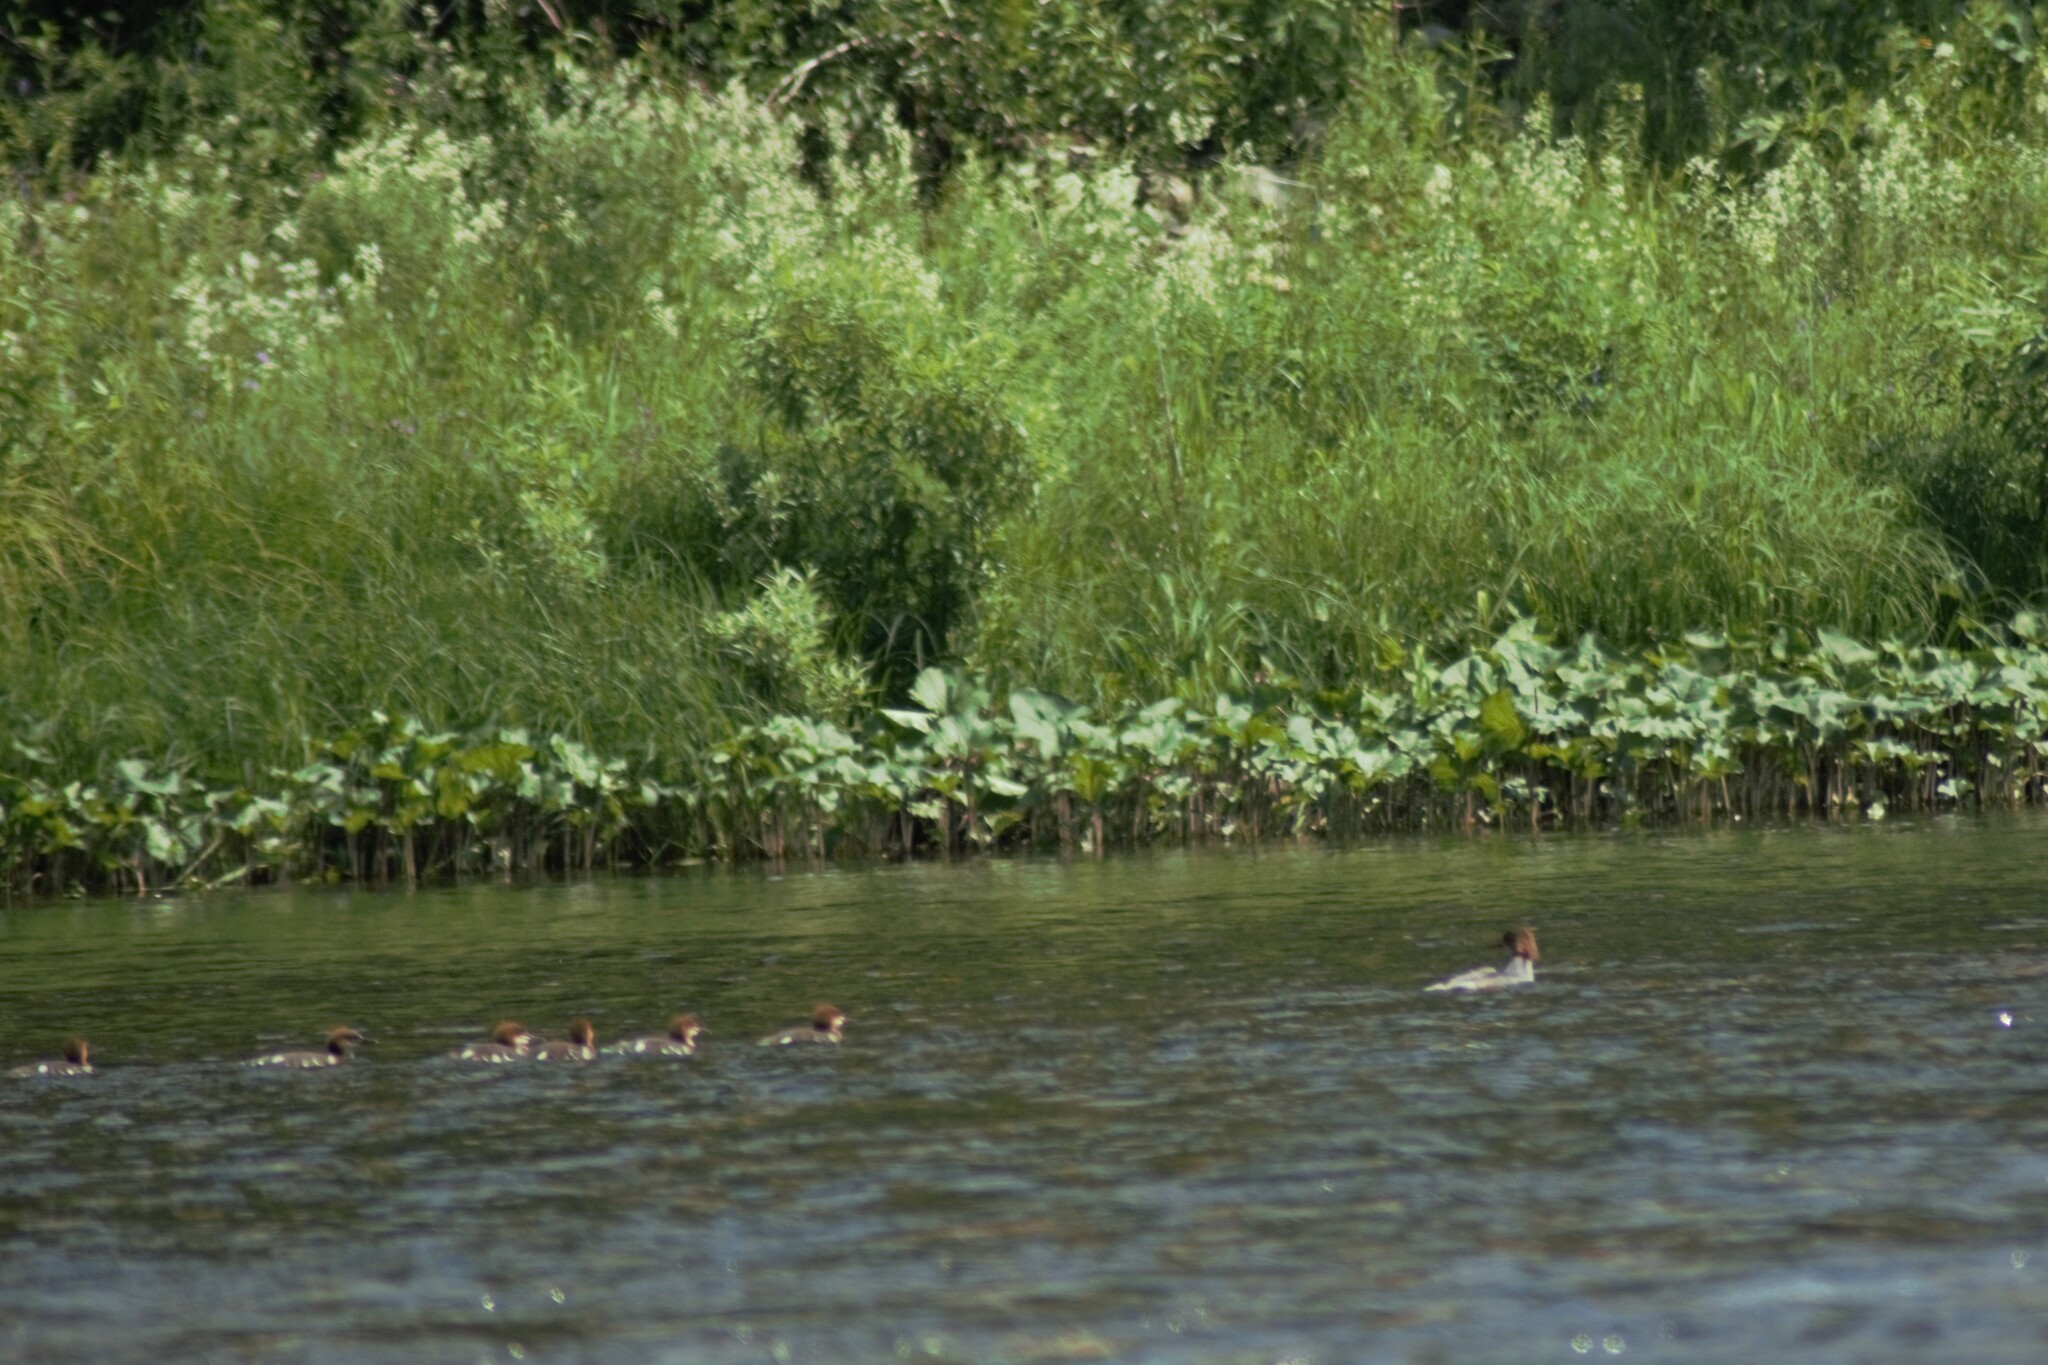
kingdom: Animalia
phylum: Chordata
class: Aves
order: Anseriformes
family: Anatidae
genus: Mergus
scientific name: Mergus merganser
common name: Common merganser
